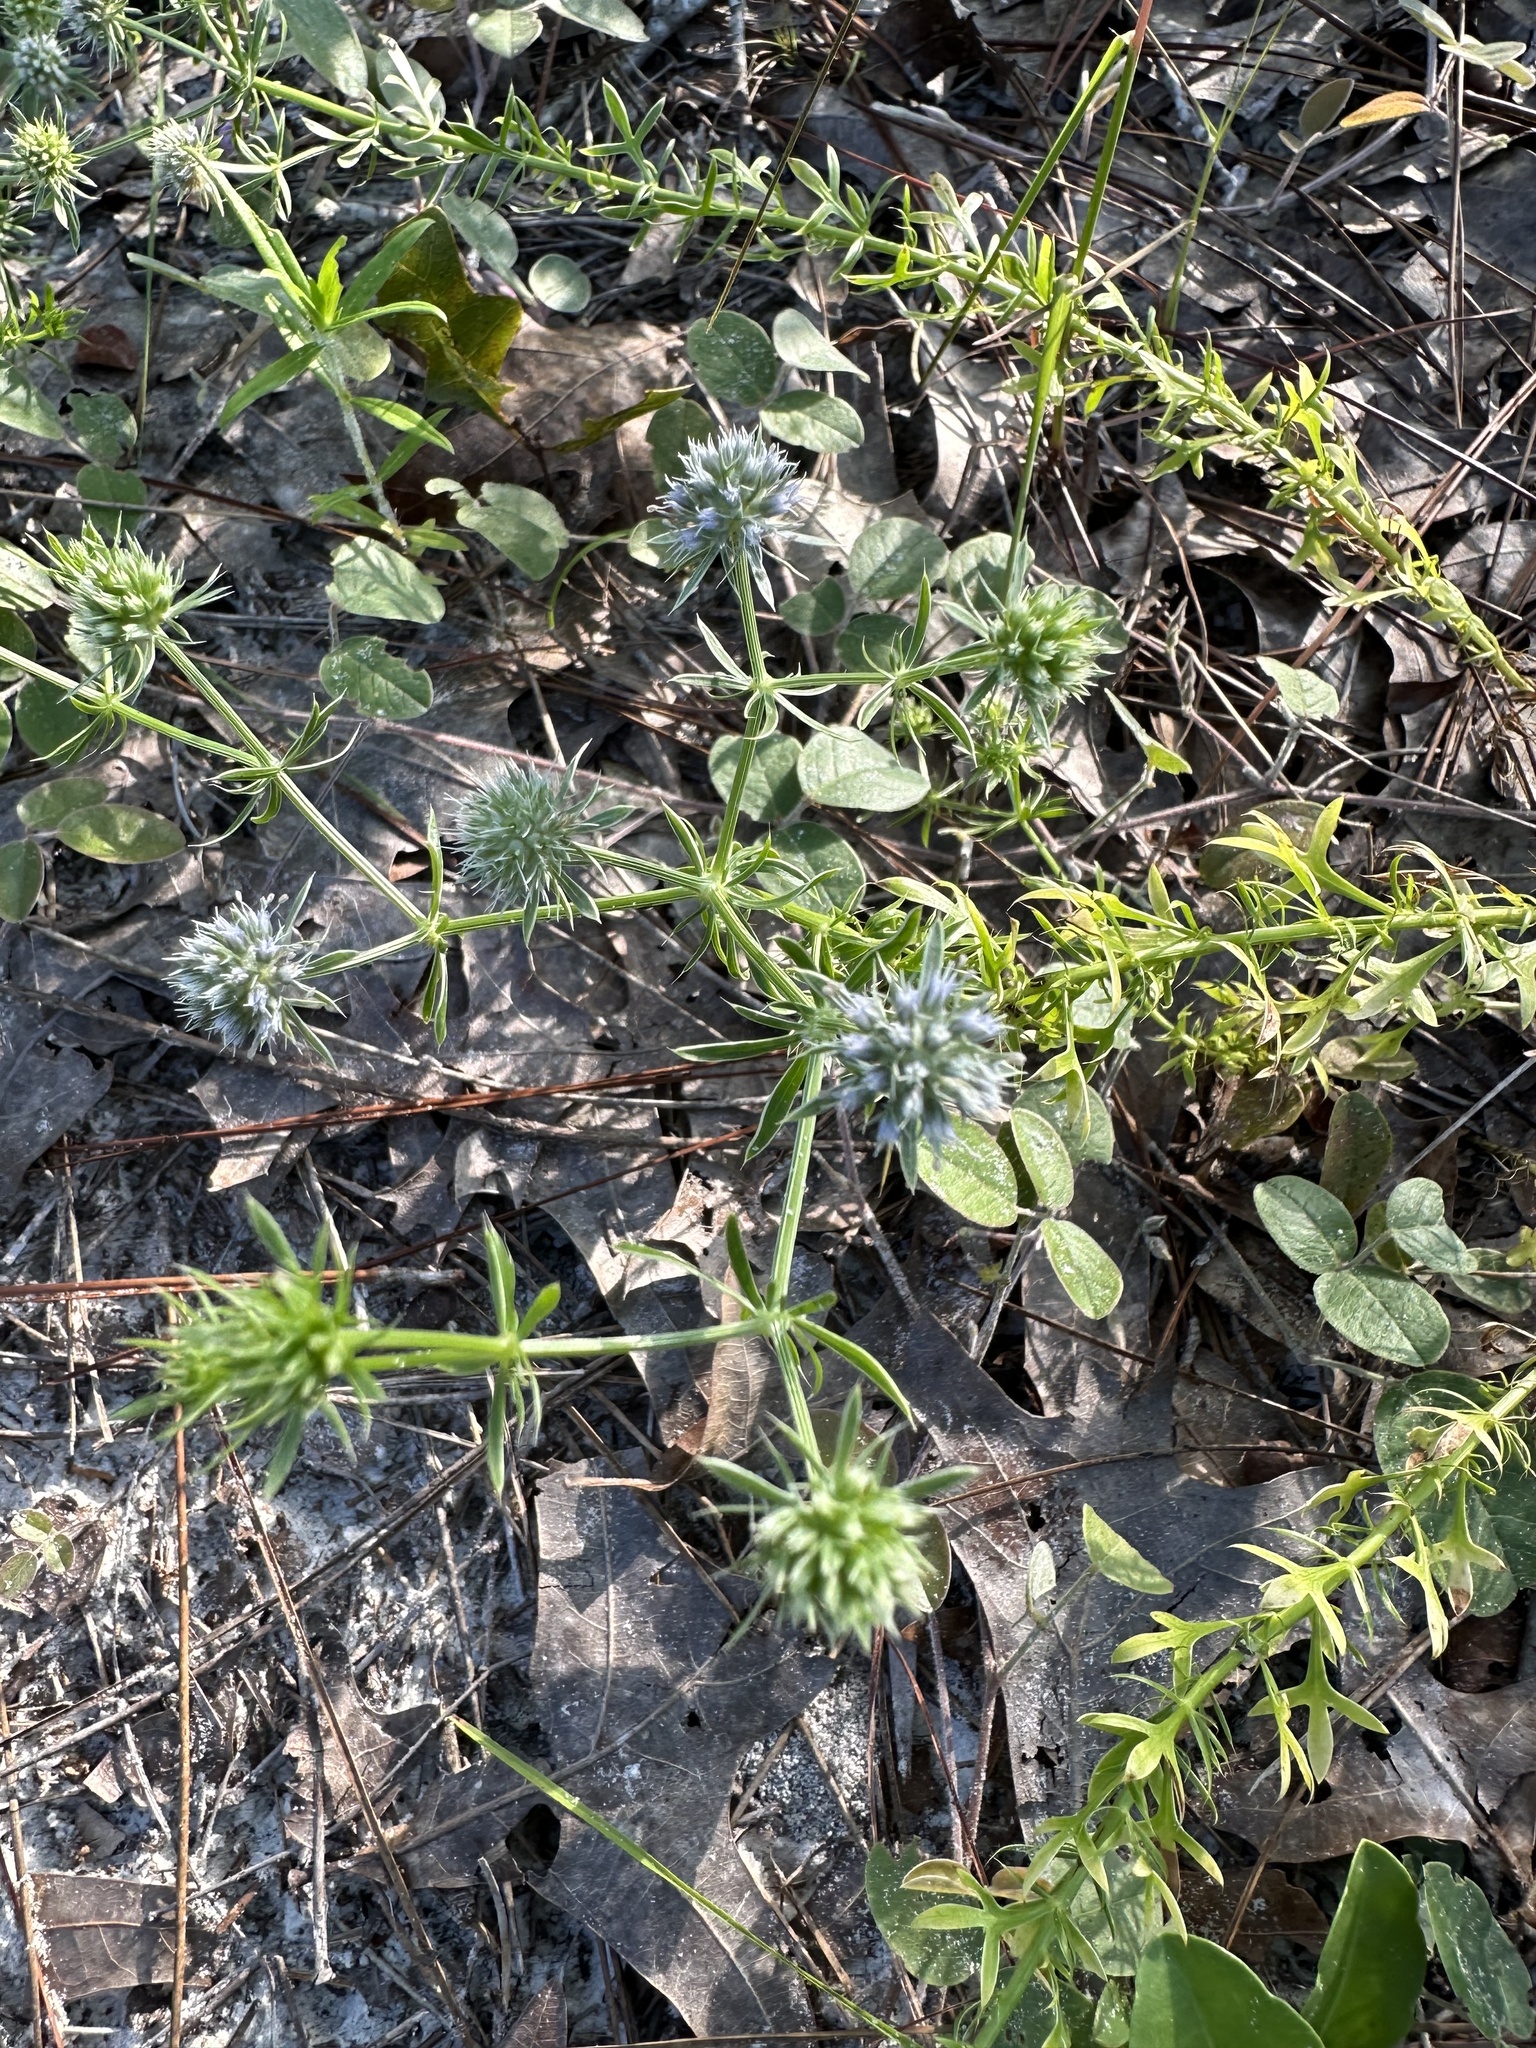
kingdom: Plantae
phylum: Tracheophyta
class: Magnoliopsida
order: Apiales
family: Apiaceae
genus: Eryngium
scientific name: Eryngium aromaticum
